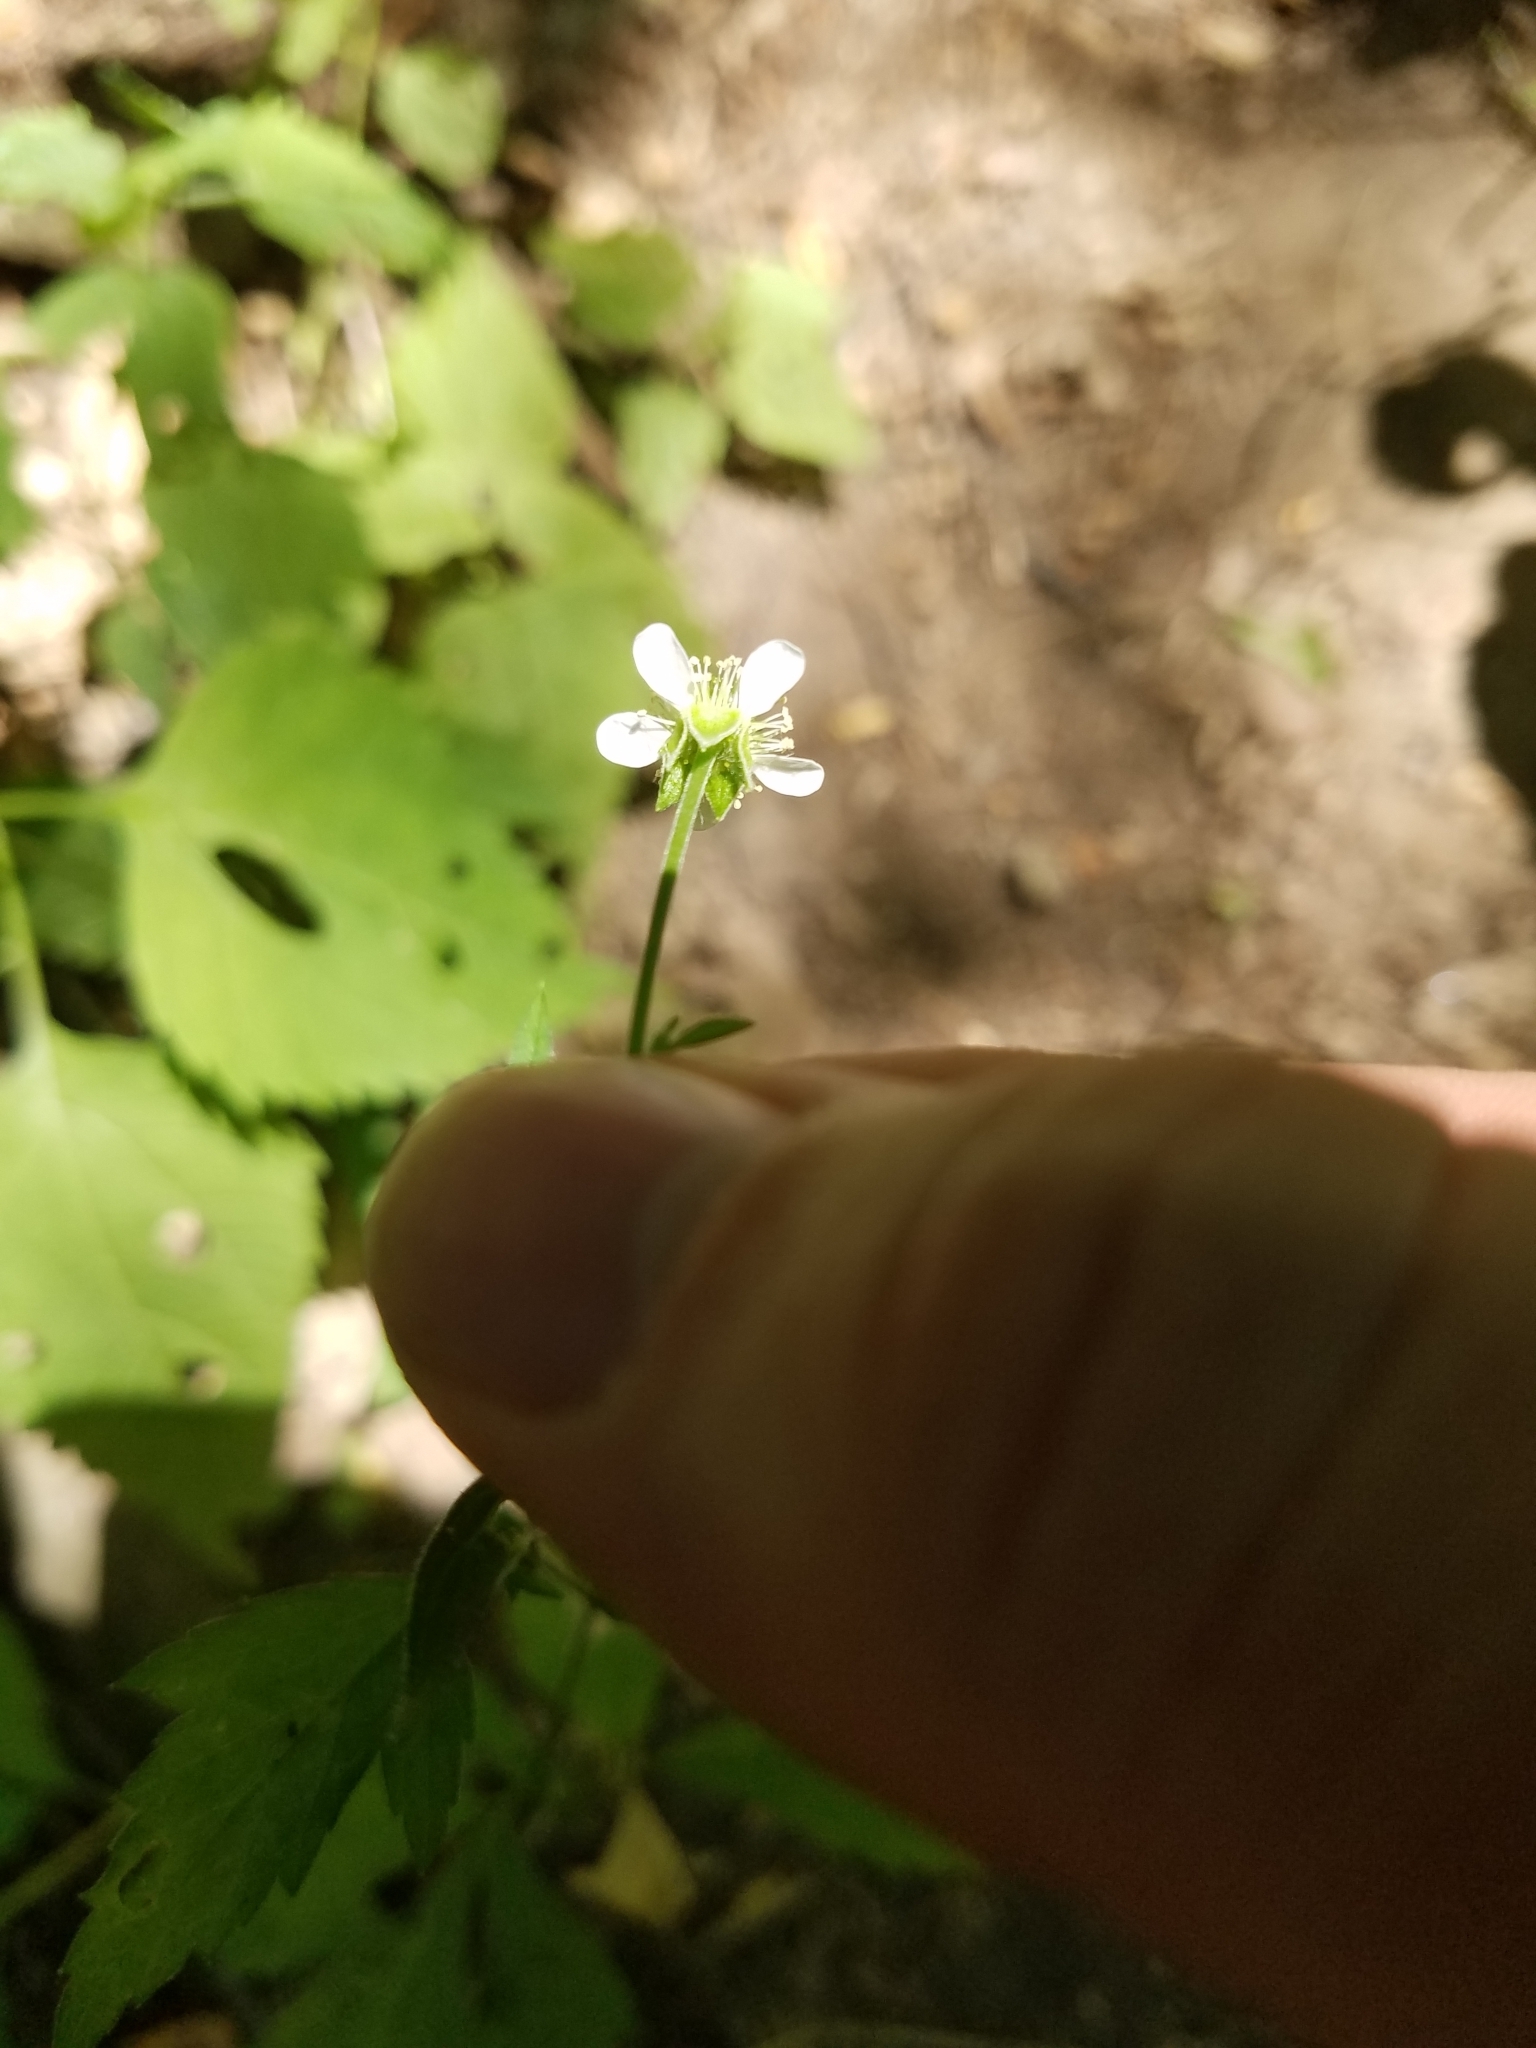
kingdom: Plantae
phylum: Tracheophyta
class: Magnoliopsida
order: Rosales
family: Rosaceae
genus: Geum
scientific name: Geum canadense
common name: White avens
